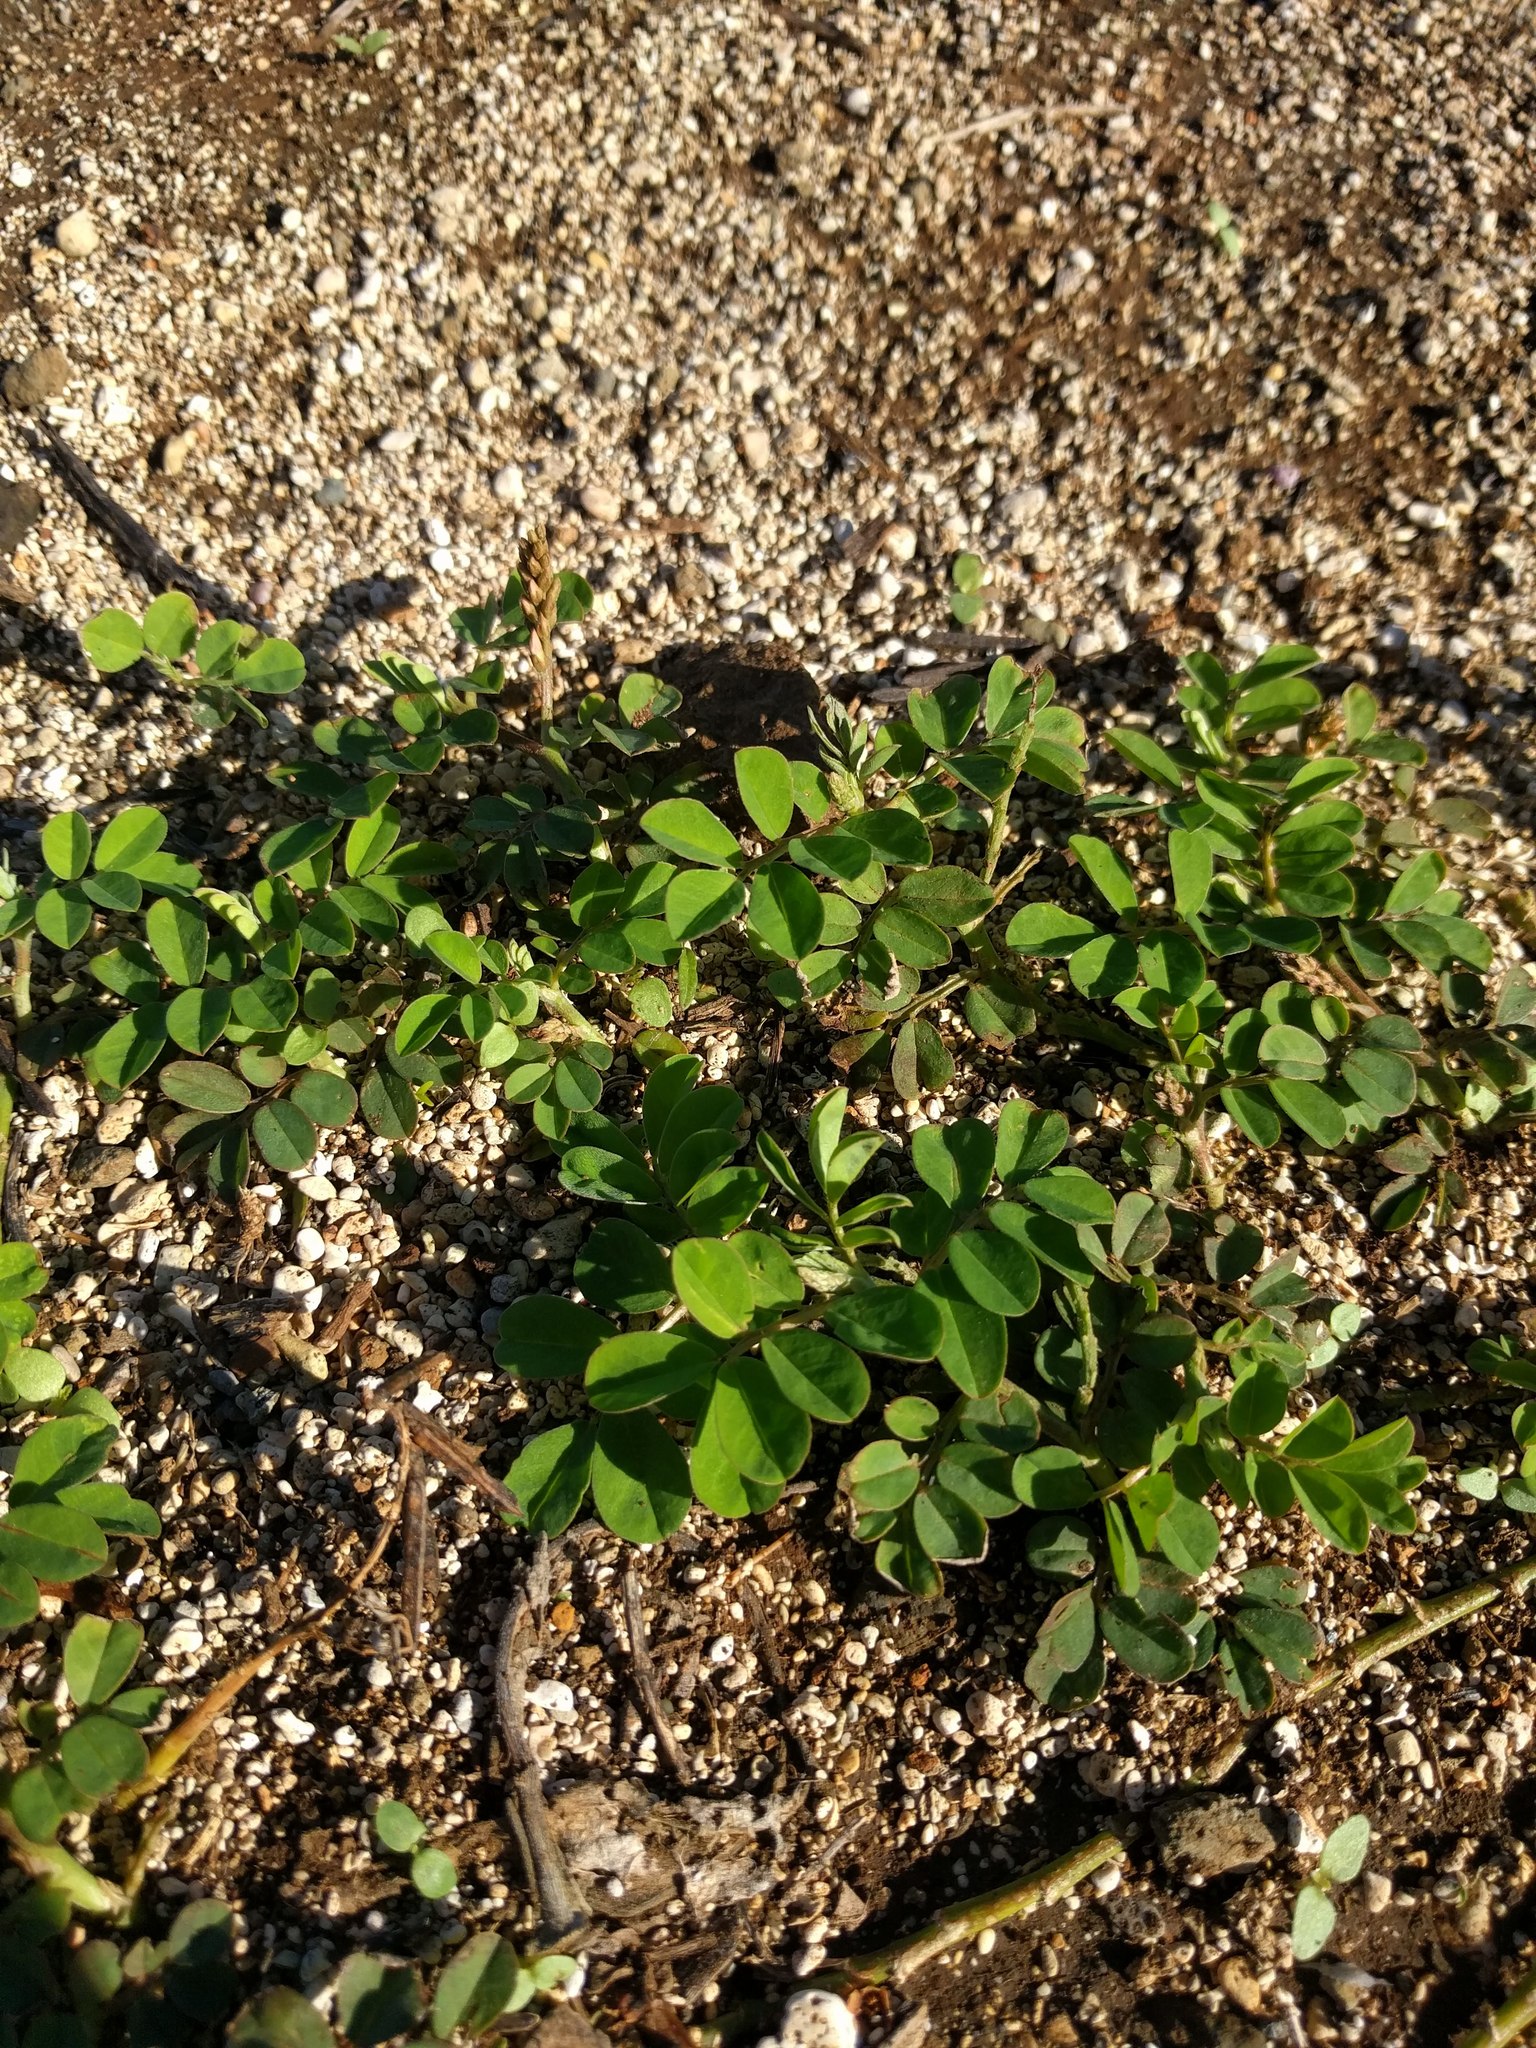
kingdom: Plantae
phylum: Tracheophyta
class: Magnoliopsida
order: Fabales
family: Fabaceae
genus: Indigofera
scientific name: Indigofera spicata
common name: Creeping indigo
